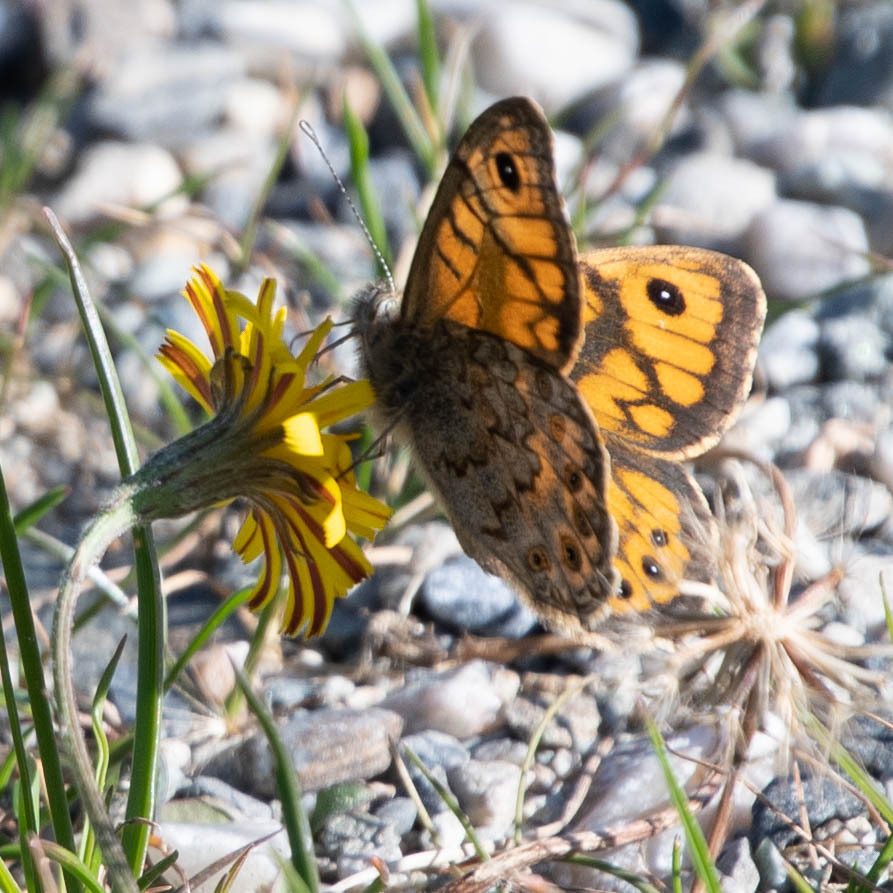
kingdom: Animalia
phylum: Arthropoda
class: Insecta
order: Lepidoptera
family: Nymphalidae
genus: Pararge
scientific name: Pararge Lasiommata megera
